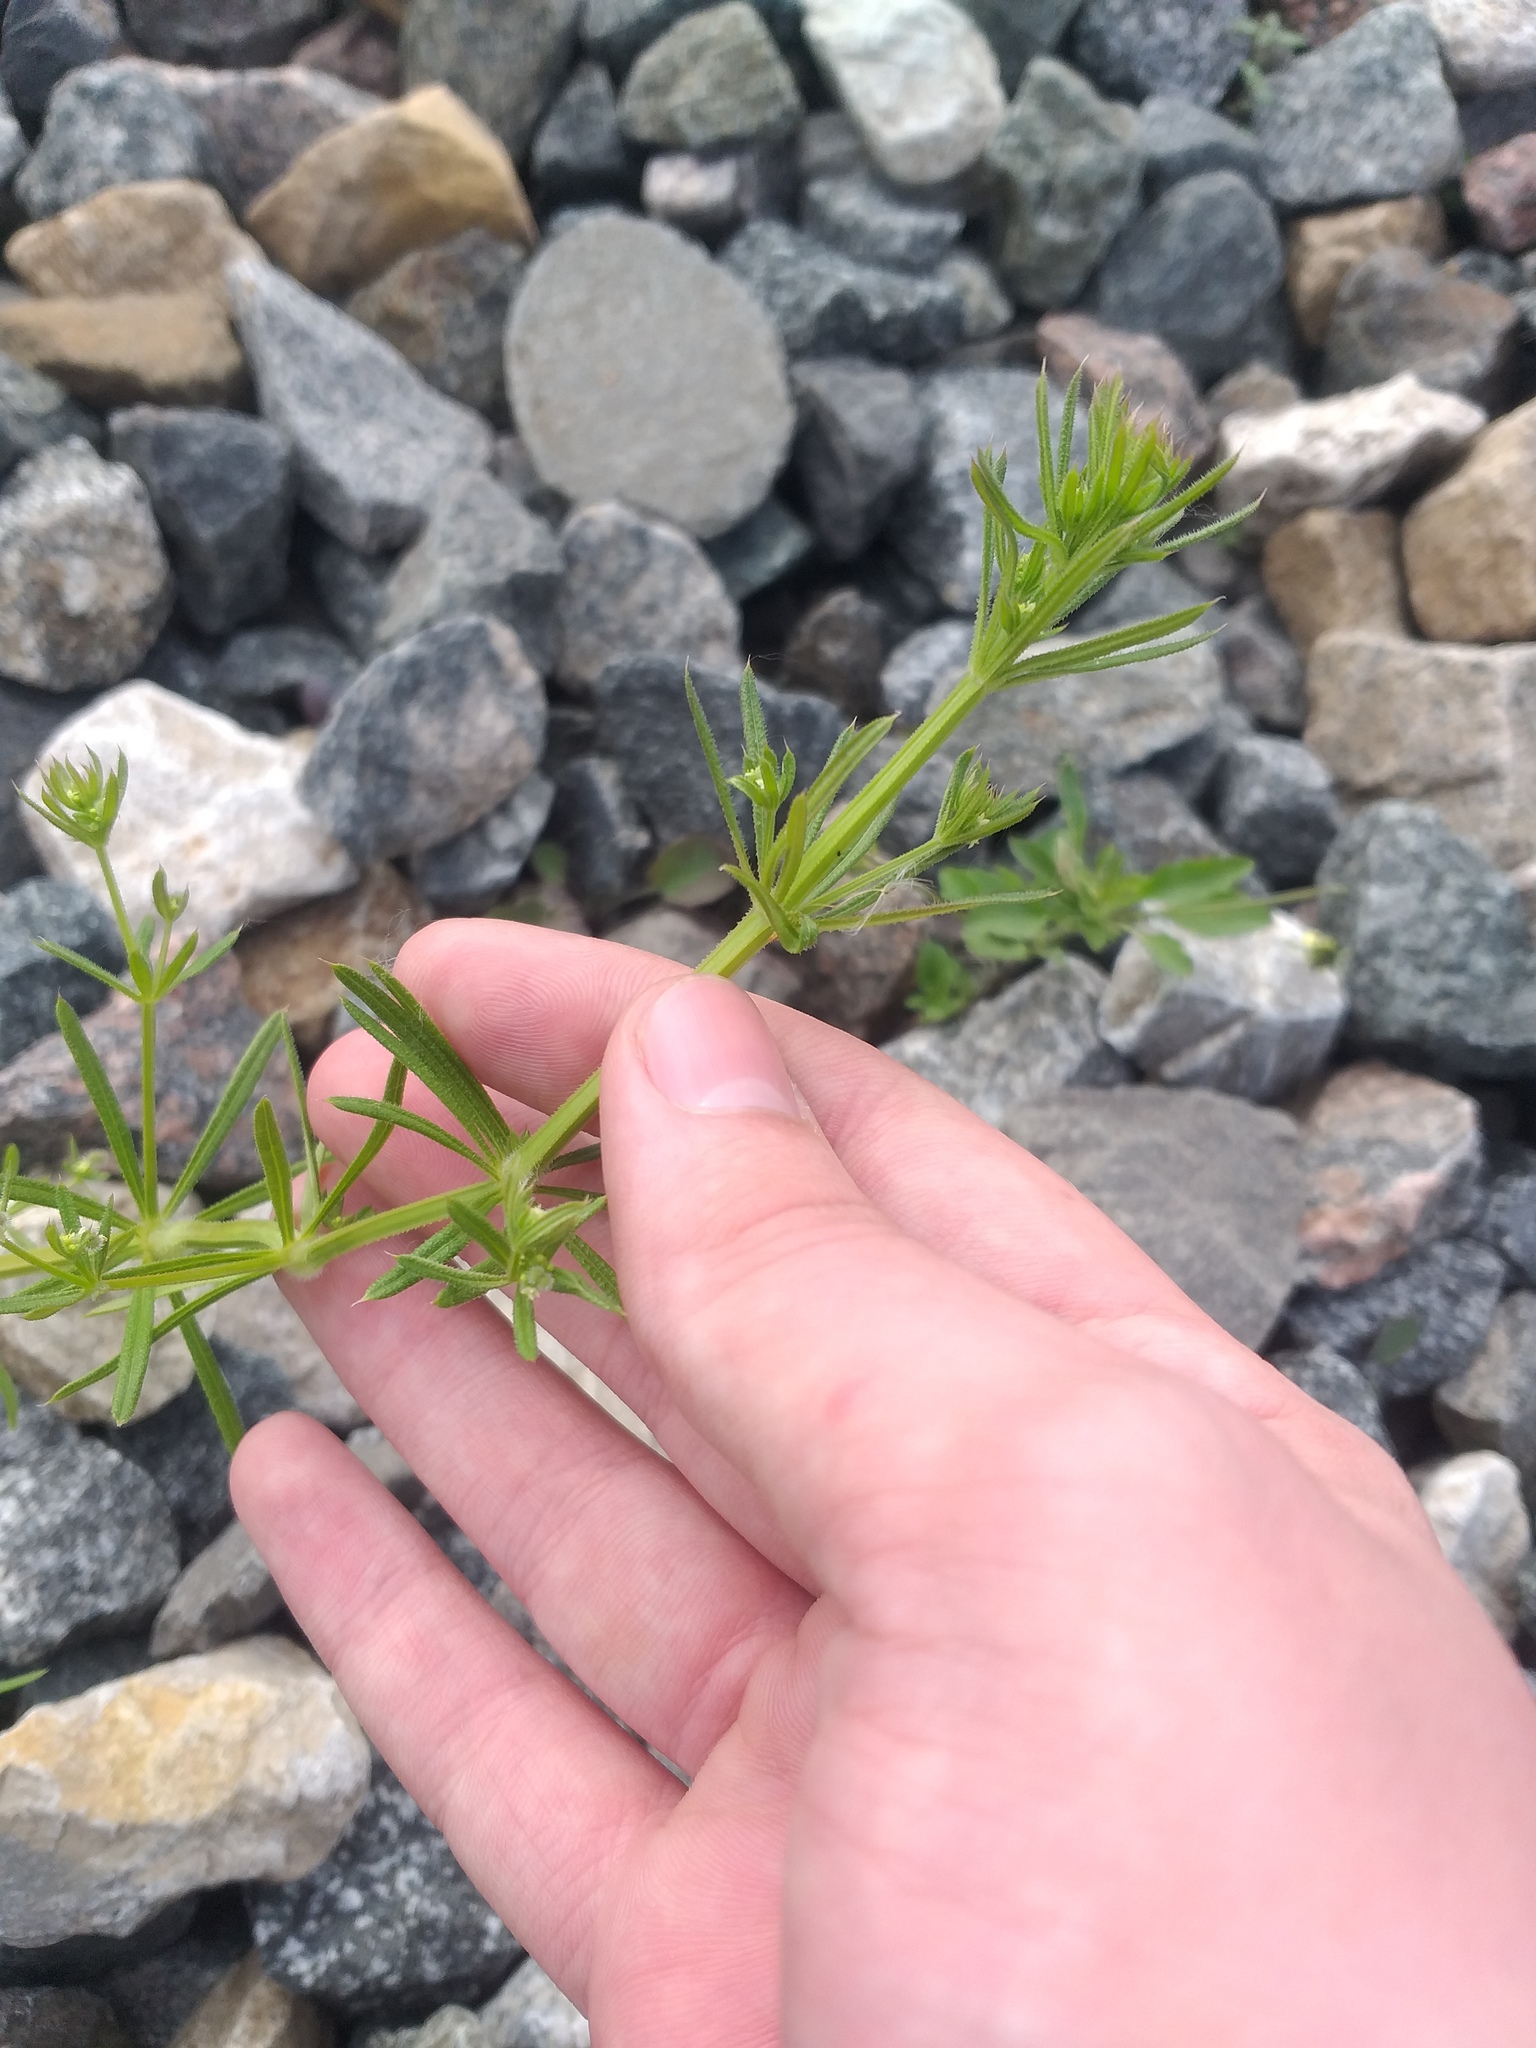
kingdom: Plantae
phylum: Tracheophyta
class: Magnoliopsida
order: Gentianales
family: Rubiaceae
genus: Galium
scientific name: Galium spurium
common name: False cleavers
